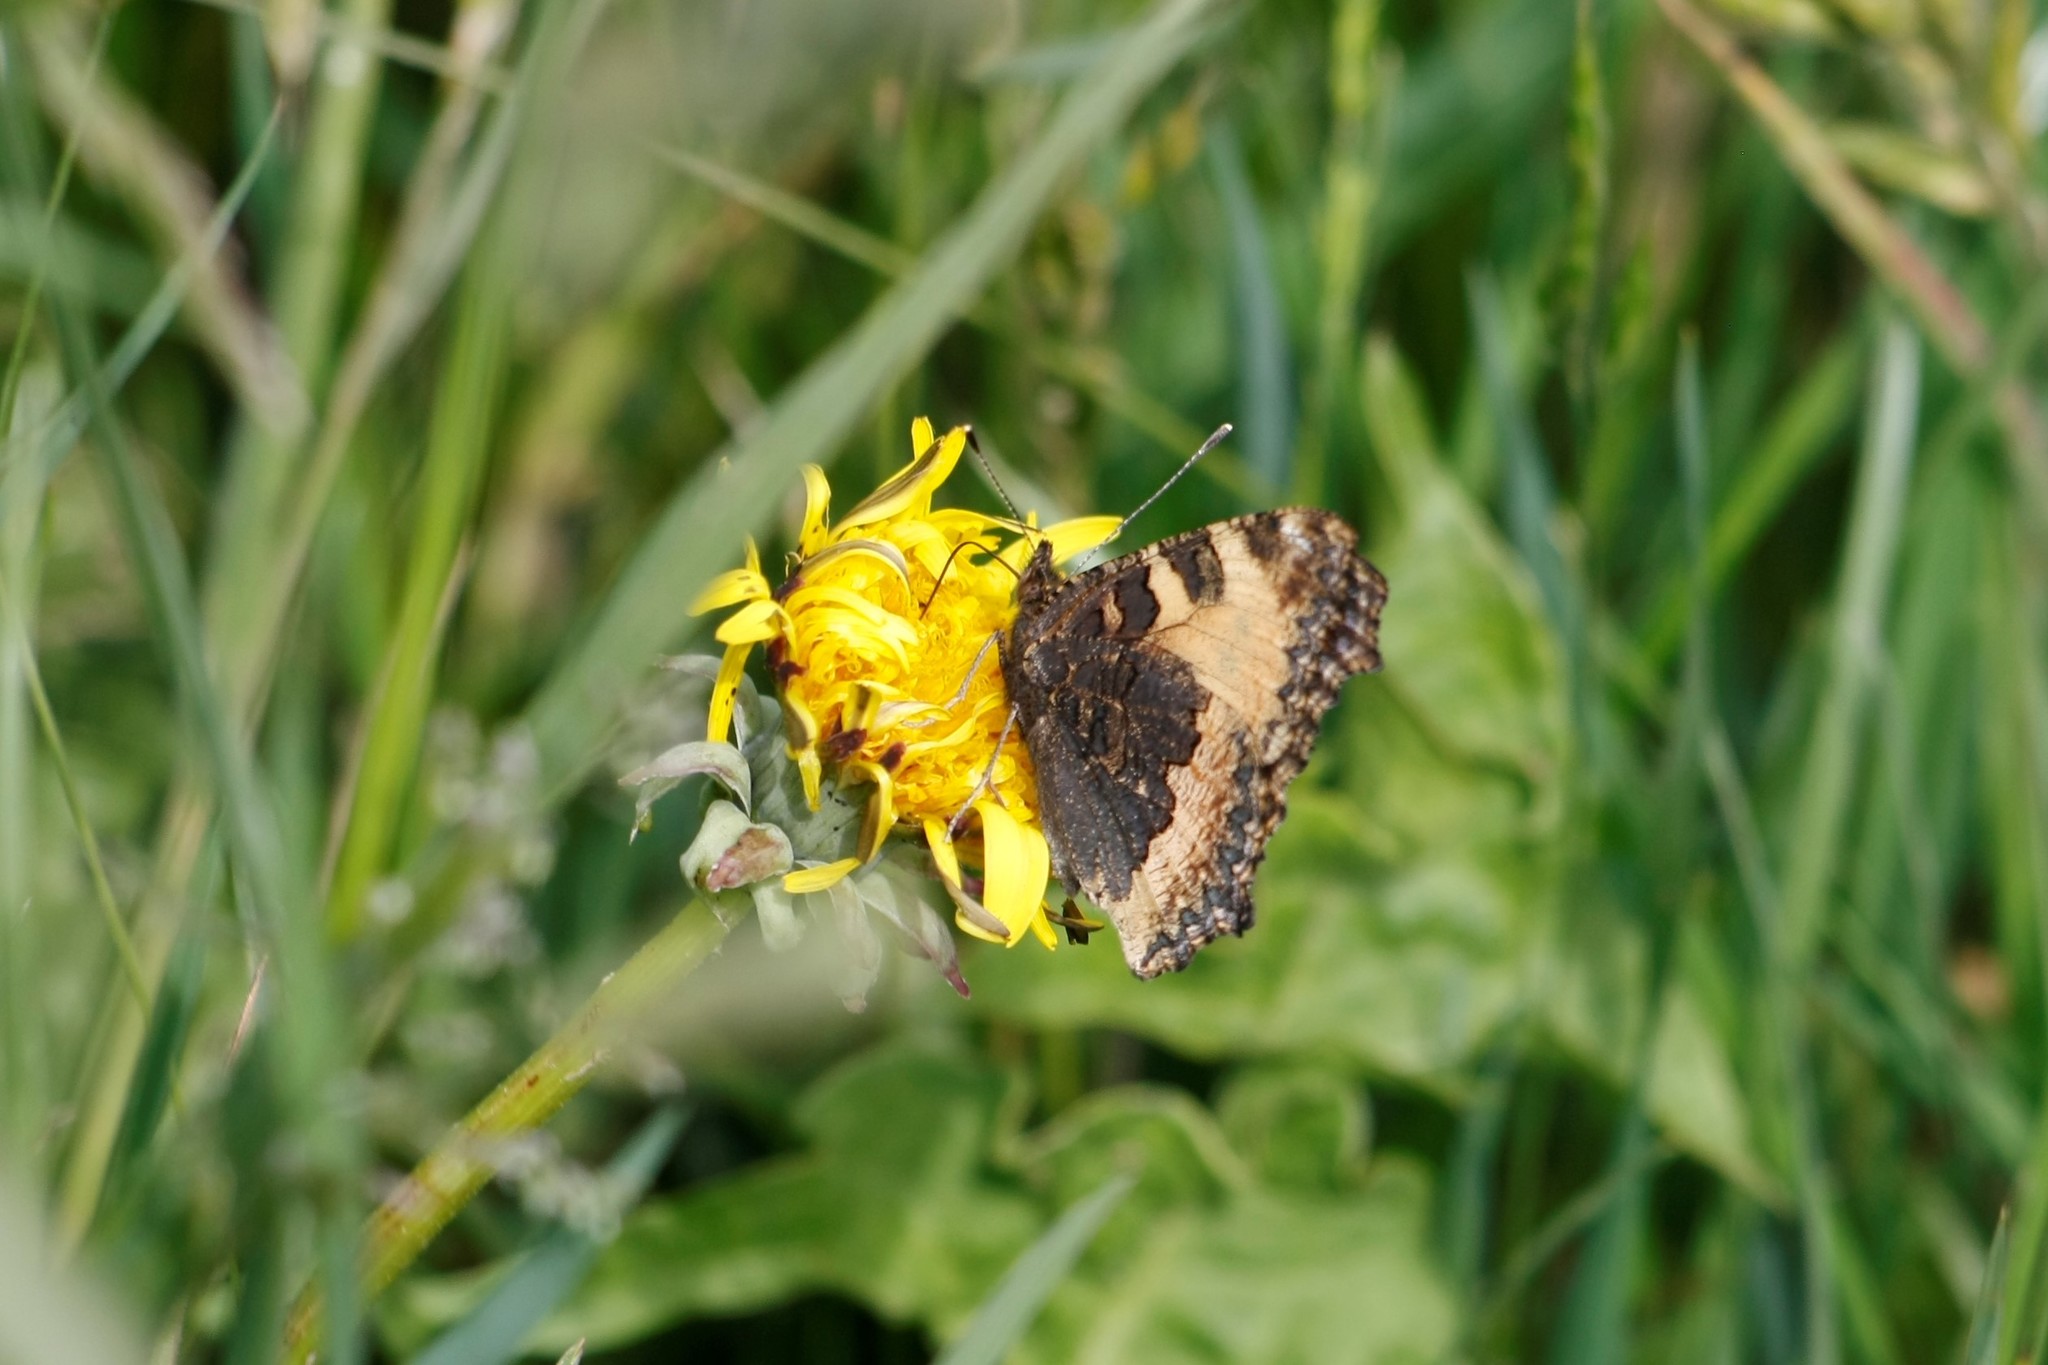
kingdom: Animalia
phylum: Arthropoda
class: Insecta
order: Lepidoptera
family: Nymphalidae
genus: Aglais
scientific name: Aglais urticae
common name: Small tortoiseshell
